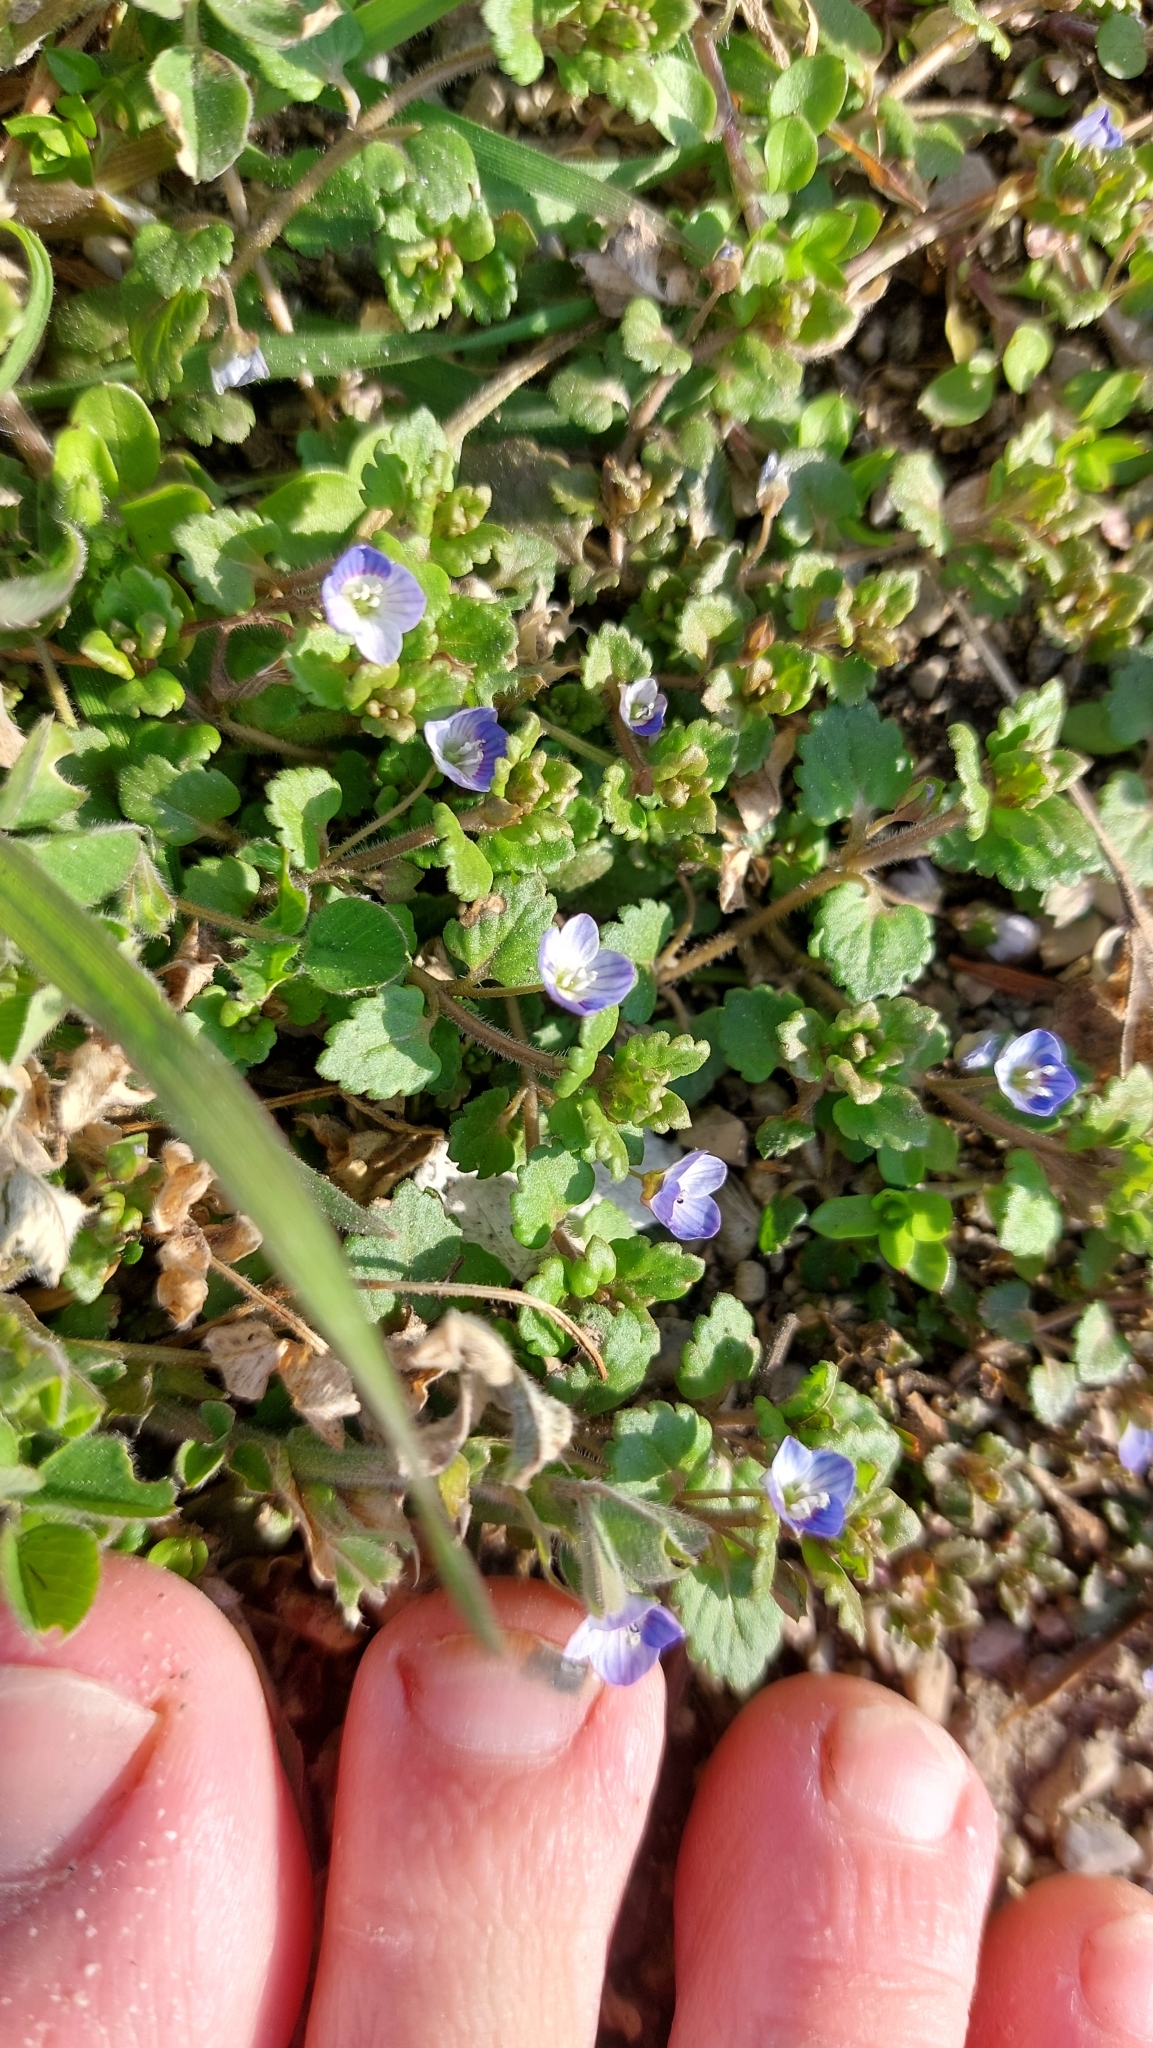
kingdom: Plantae
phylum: Tracheophyta
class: Magnoliopsida
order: Lamiales
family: Plantaginaceae
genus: Veronica
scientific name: Veronica polita
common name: Grey field-speedwell
